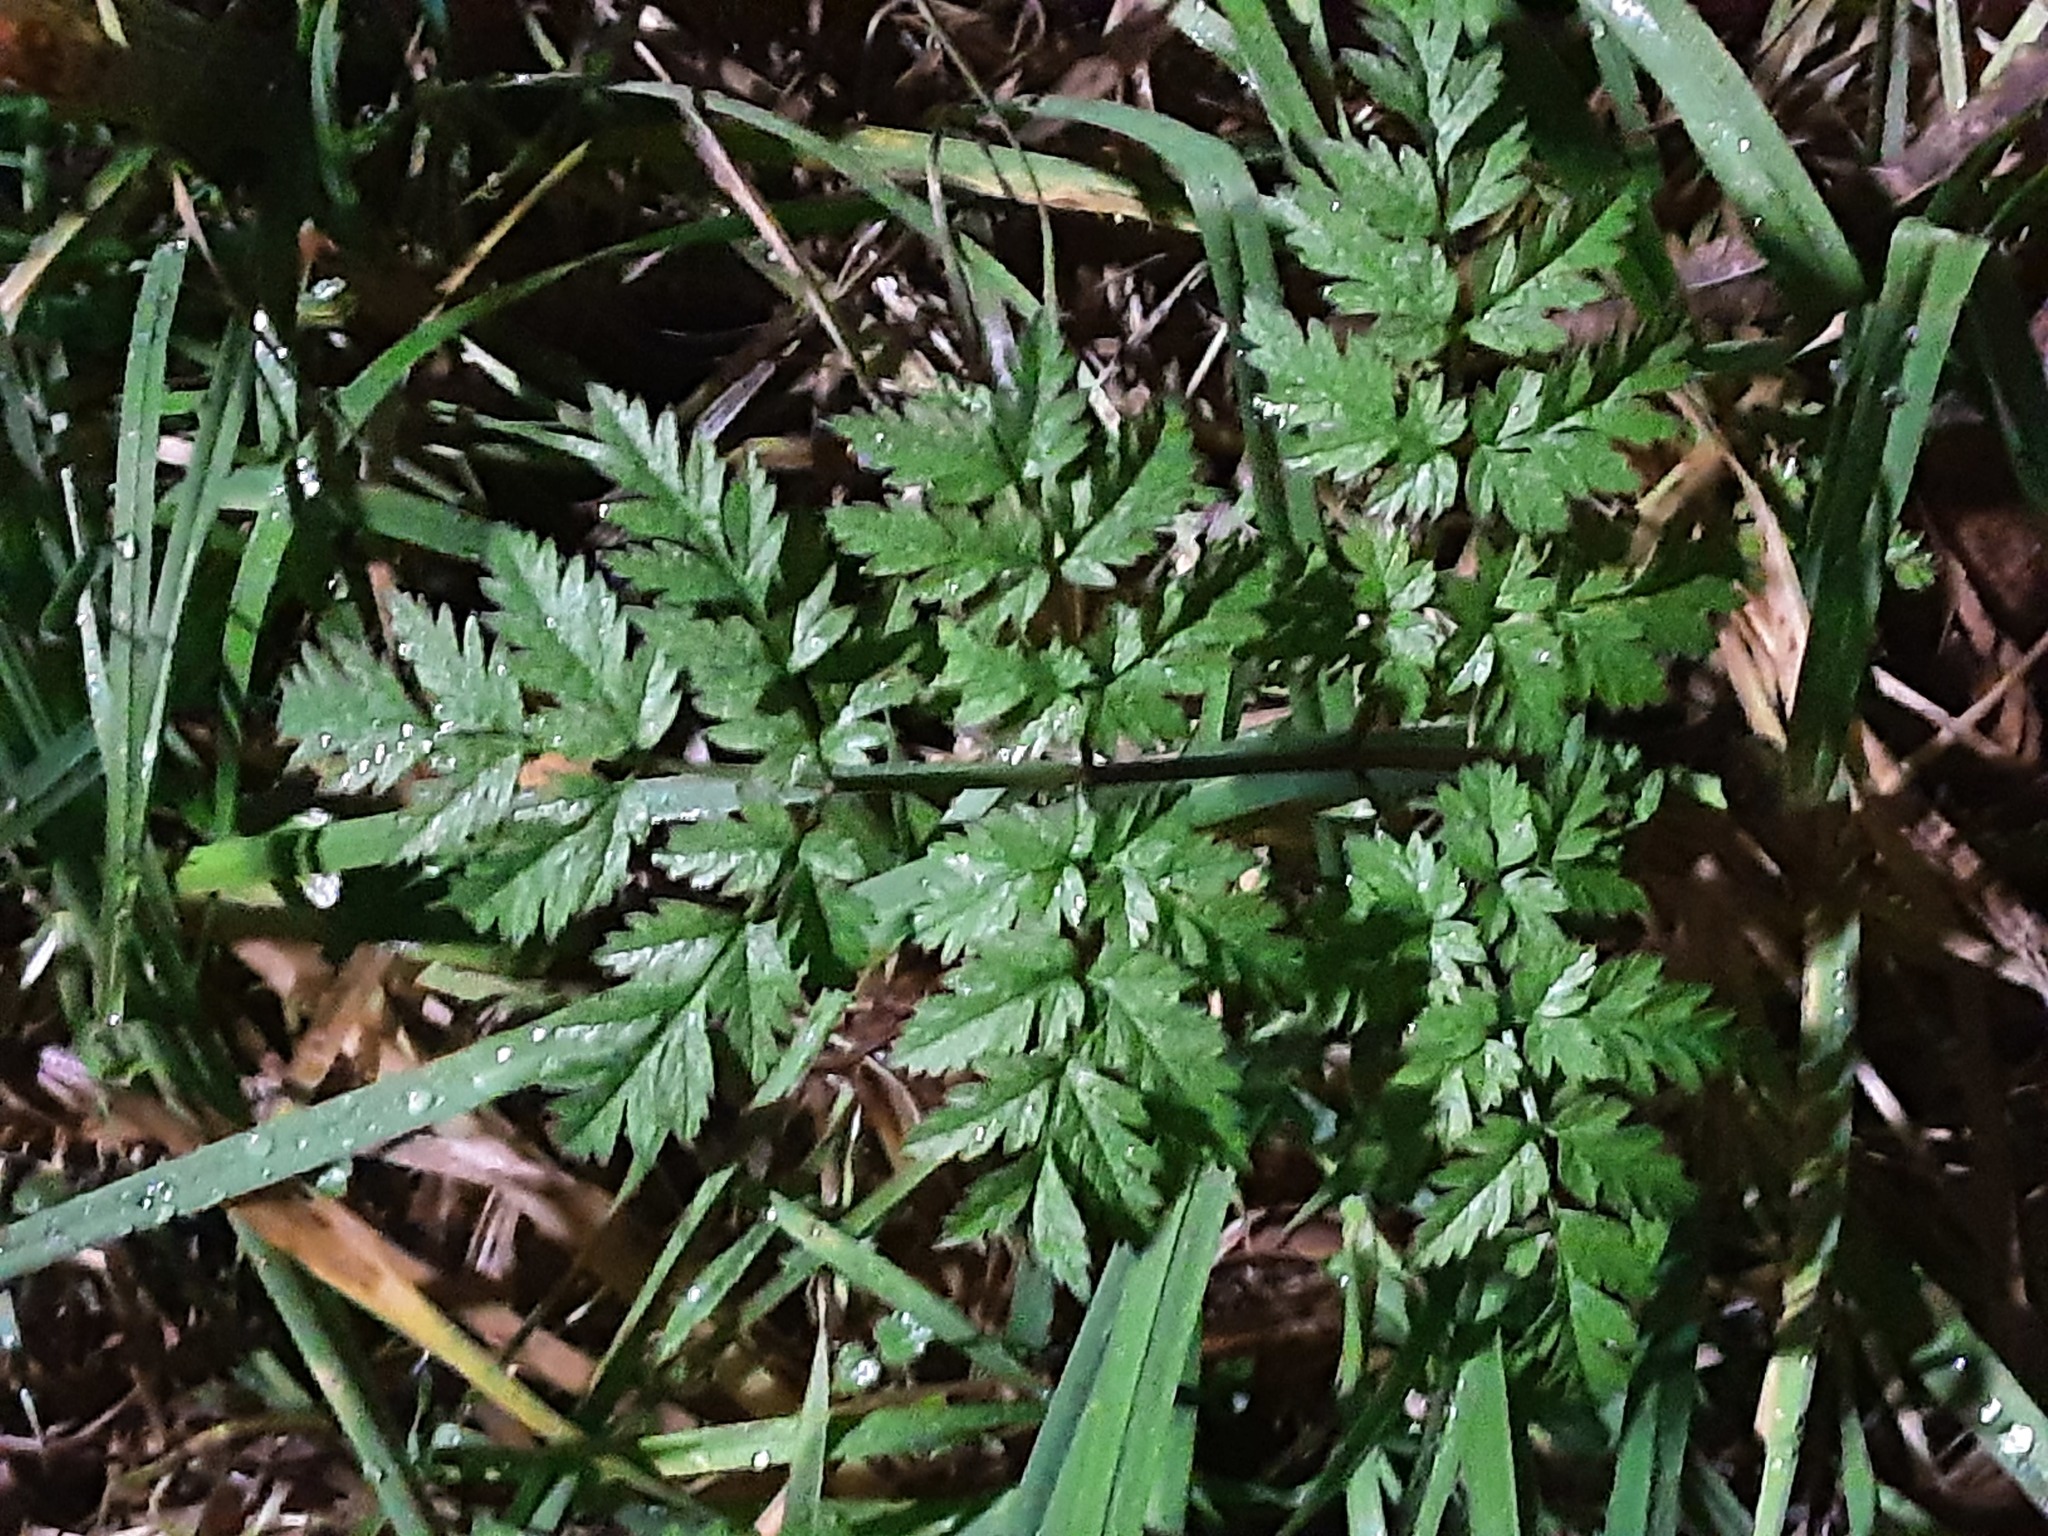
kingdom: Plantae
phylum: Tracheophyta
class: Magnoliopsida
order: Apiales
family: Apiaceae
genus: Anthriscus
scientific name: Anthriscus sylvestris
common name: Cow parsley
